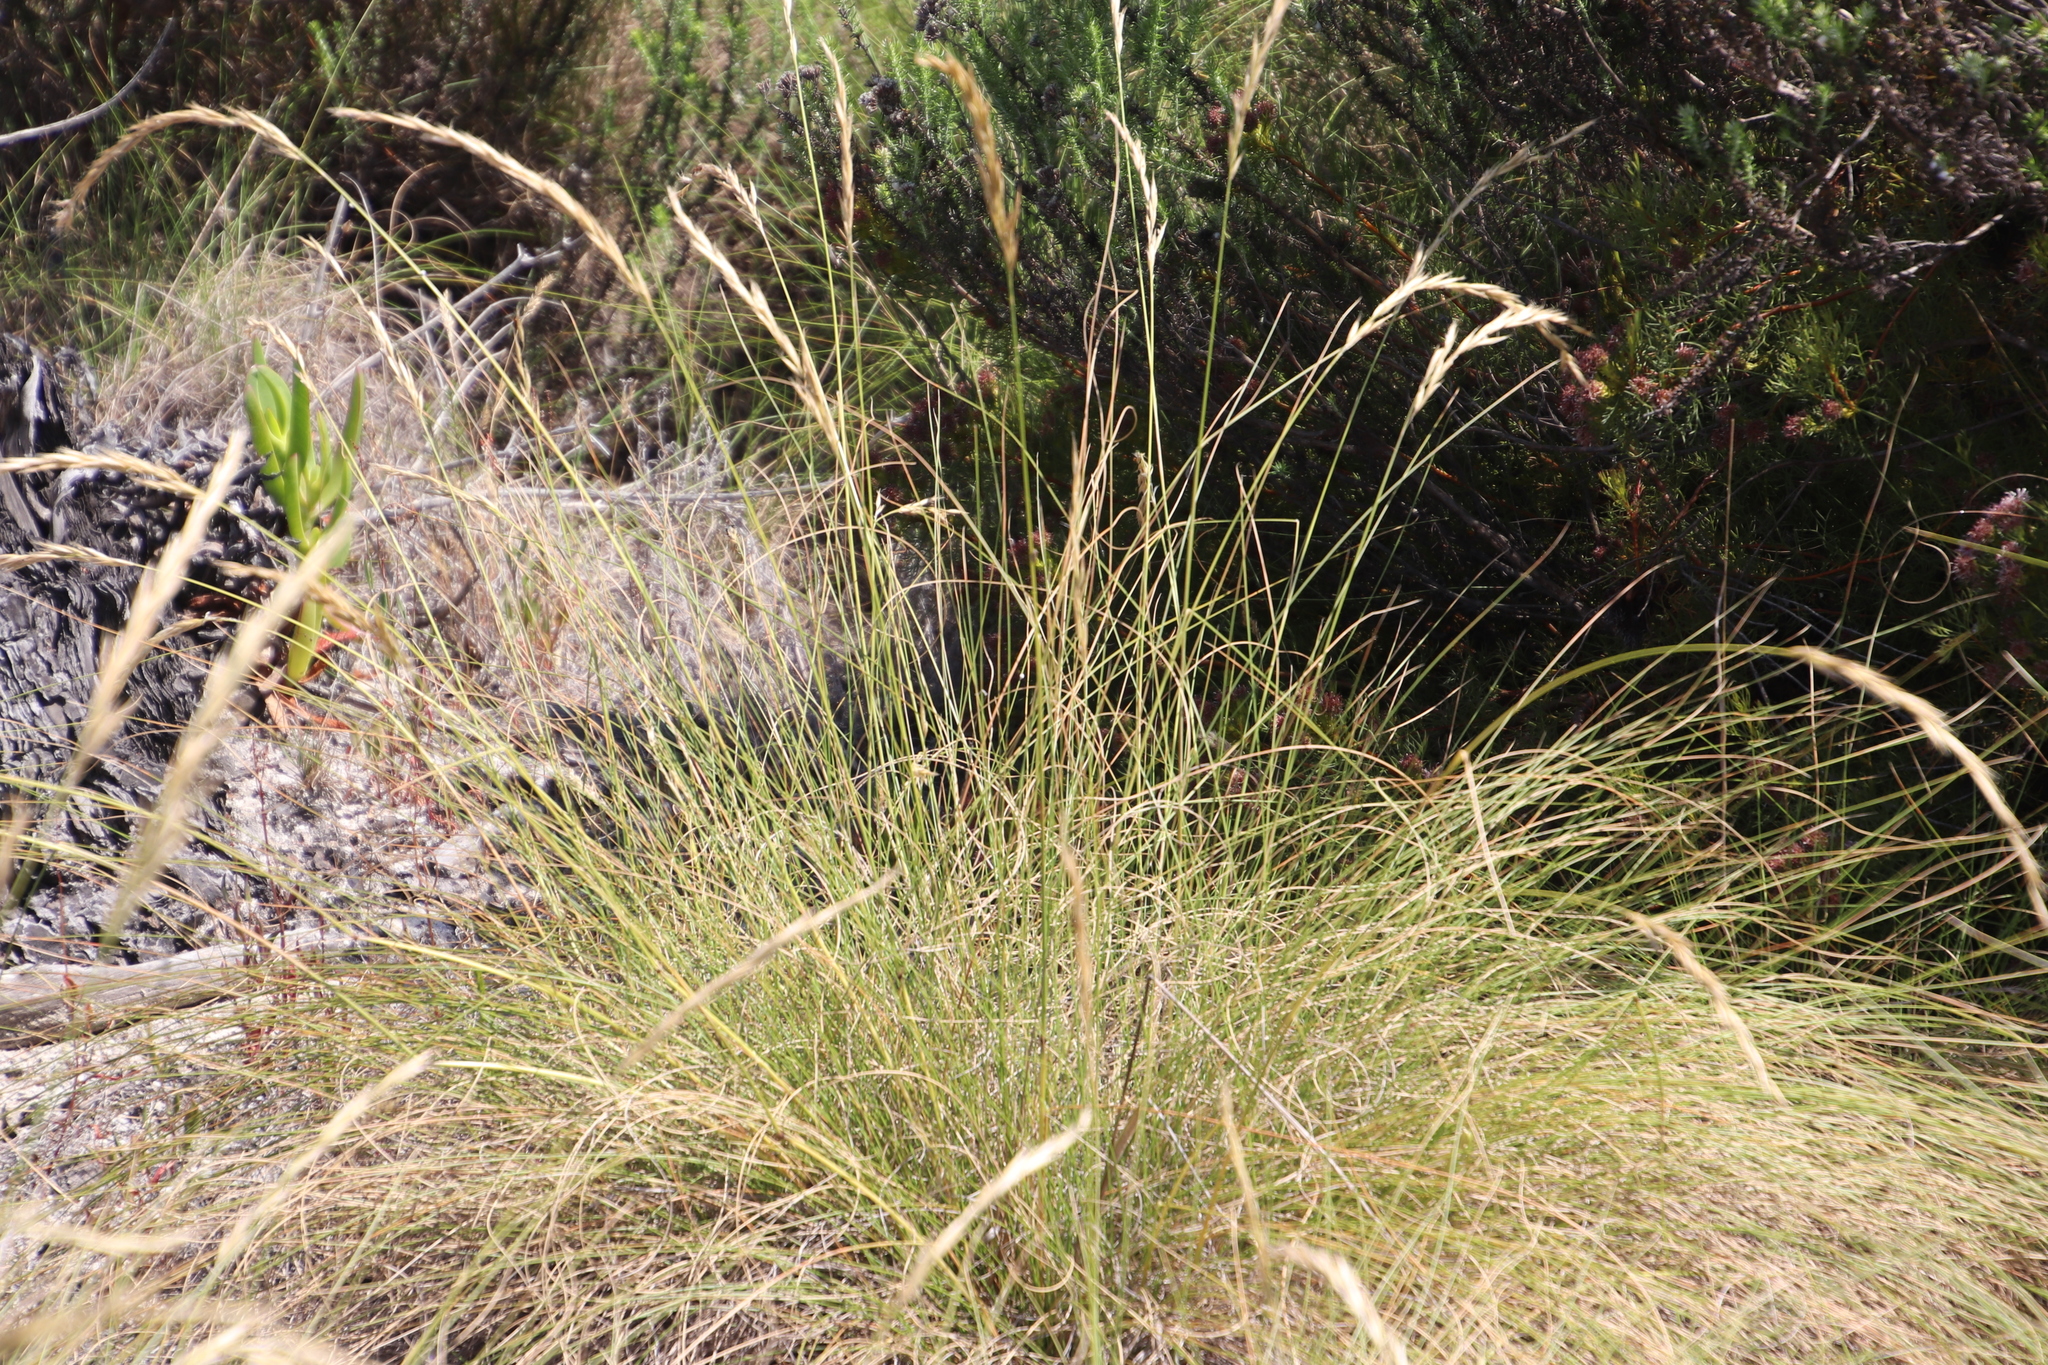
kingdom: Plantae
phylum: Tracheophyta
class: Liliopsida
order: Poales
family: Poaceae
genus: Pseudopentameris
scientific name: Pseudopentameris macrantha
